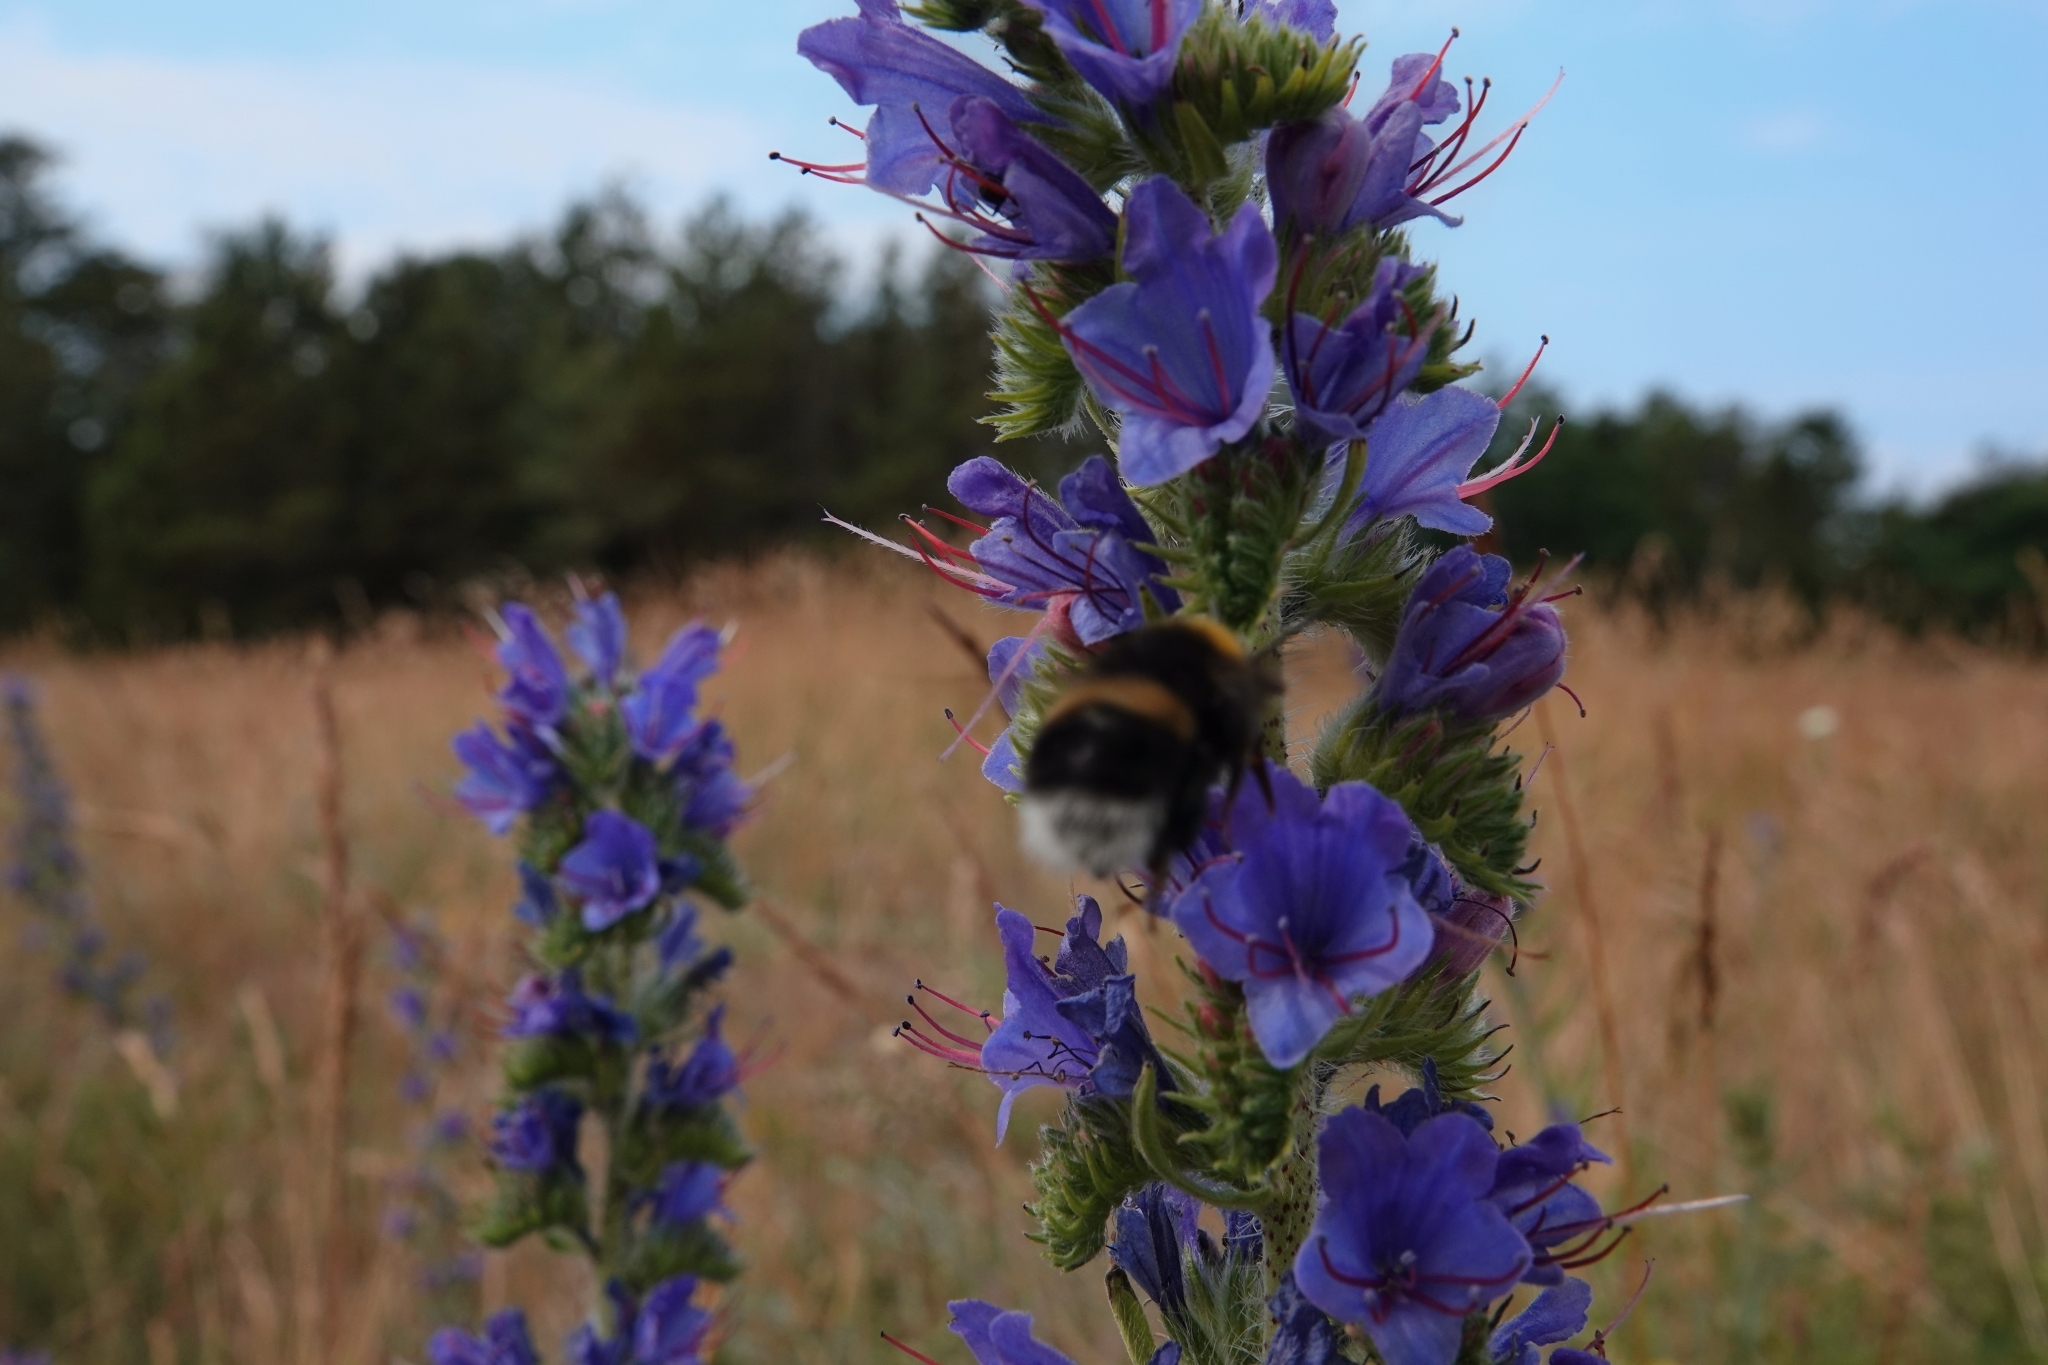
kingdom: Plantae
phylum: Tracheophyta
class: Magnoliopsida
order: Boraginales
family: Boraginaceae
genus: Echium
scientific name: Echium vulgare
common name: Common viper's bugloss
